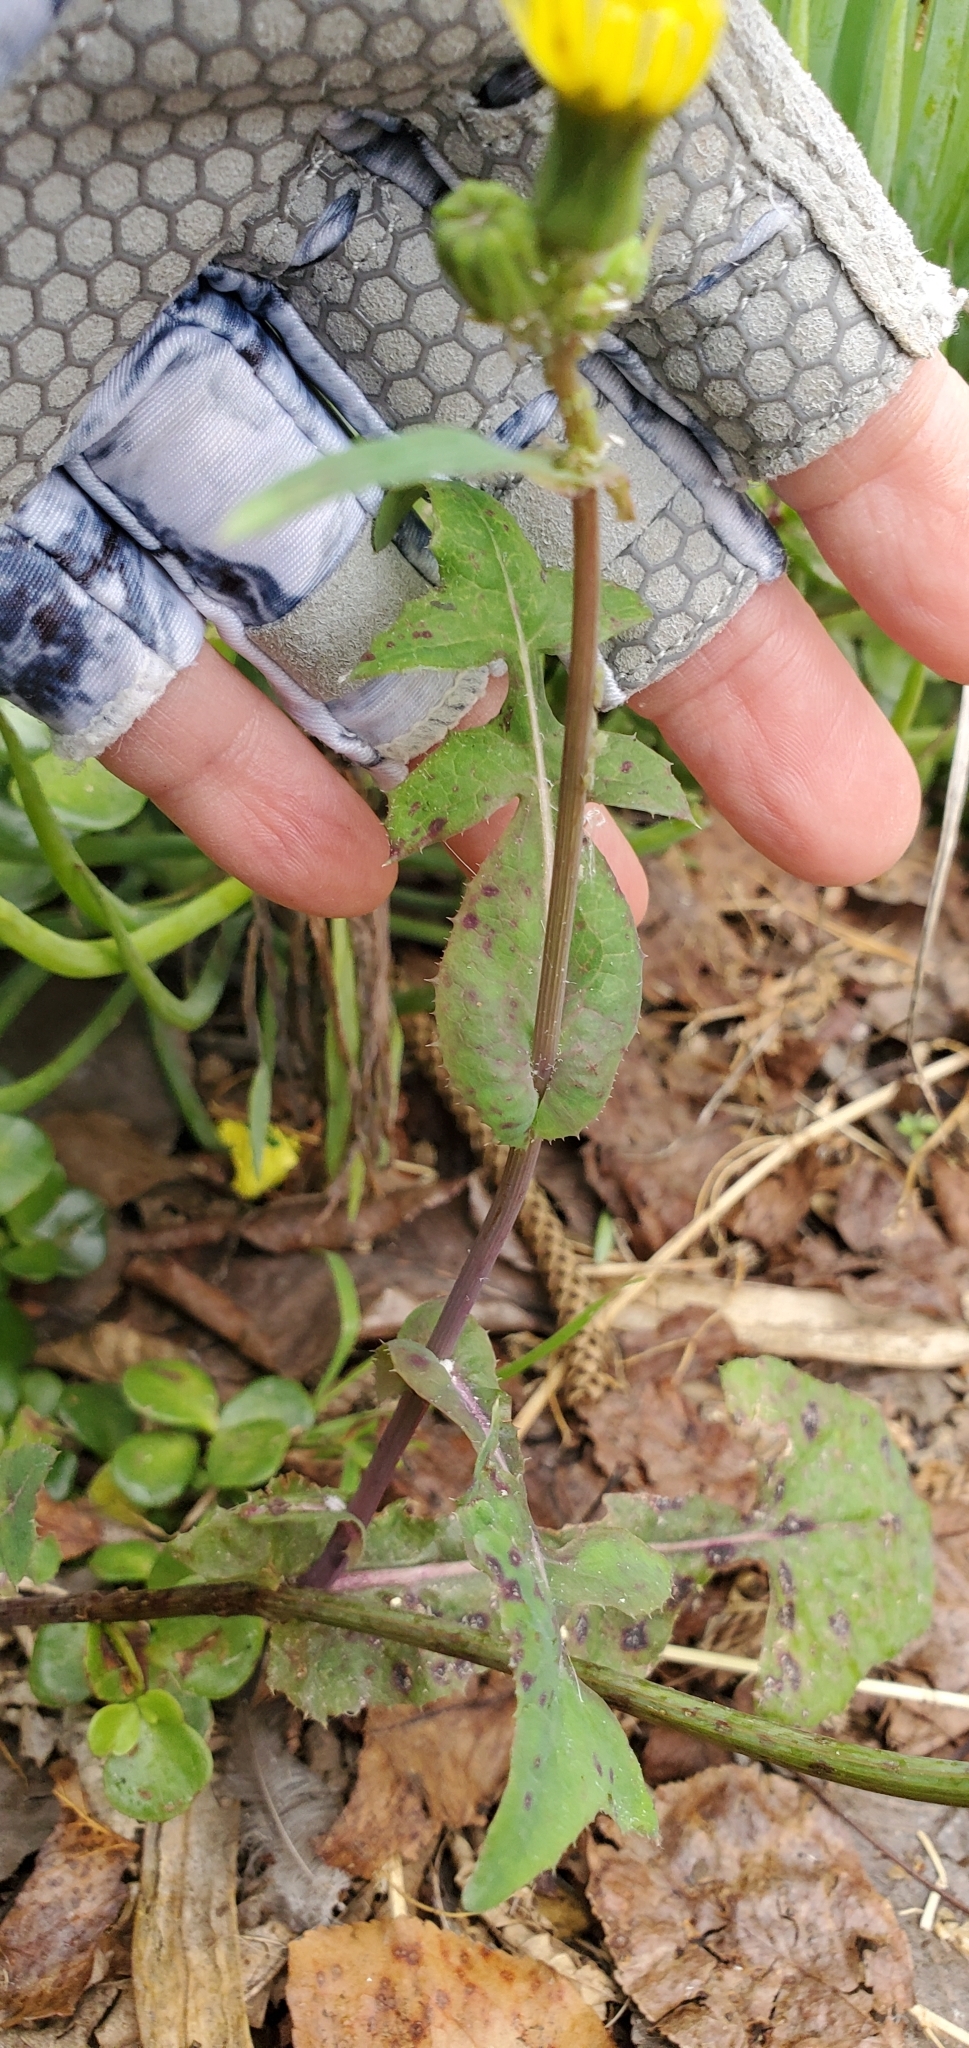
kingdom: Plantae
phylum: Tracheophyta
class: Magnoliopsida
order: Asterales
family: Asteraceae
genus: Sonchus
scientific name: Sonchus oleraceus
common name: Common sowthistle
